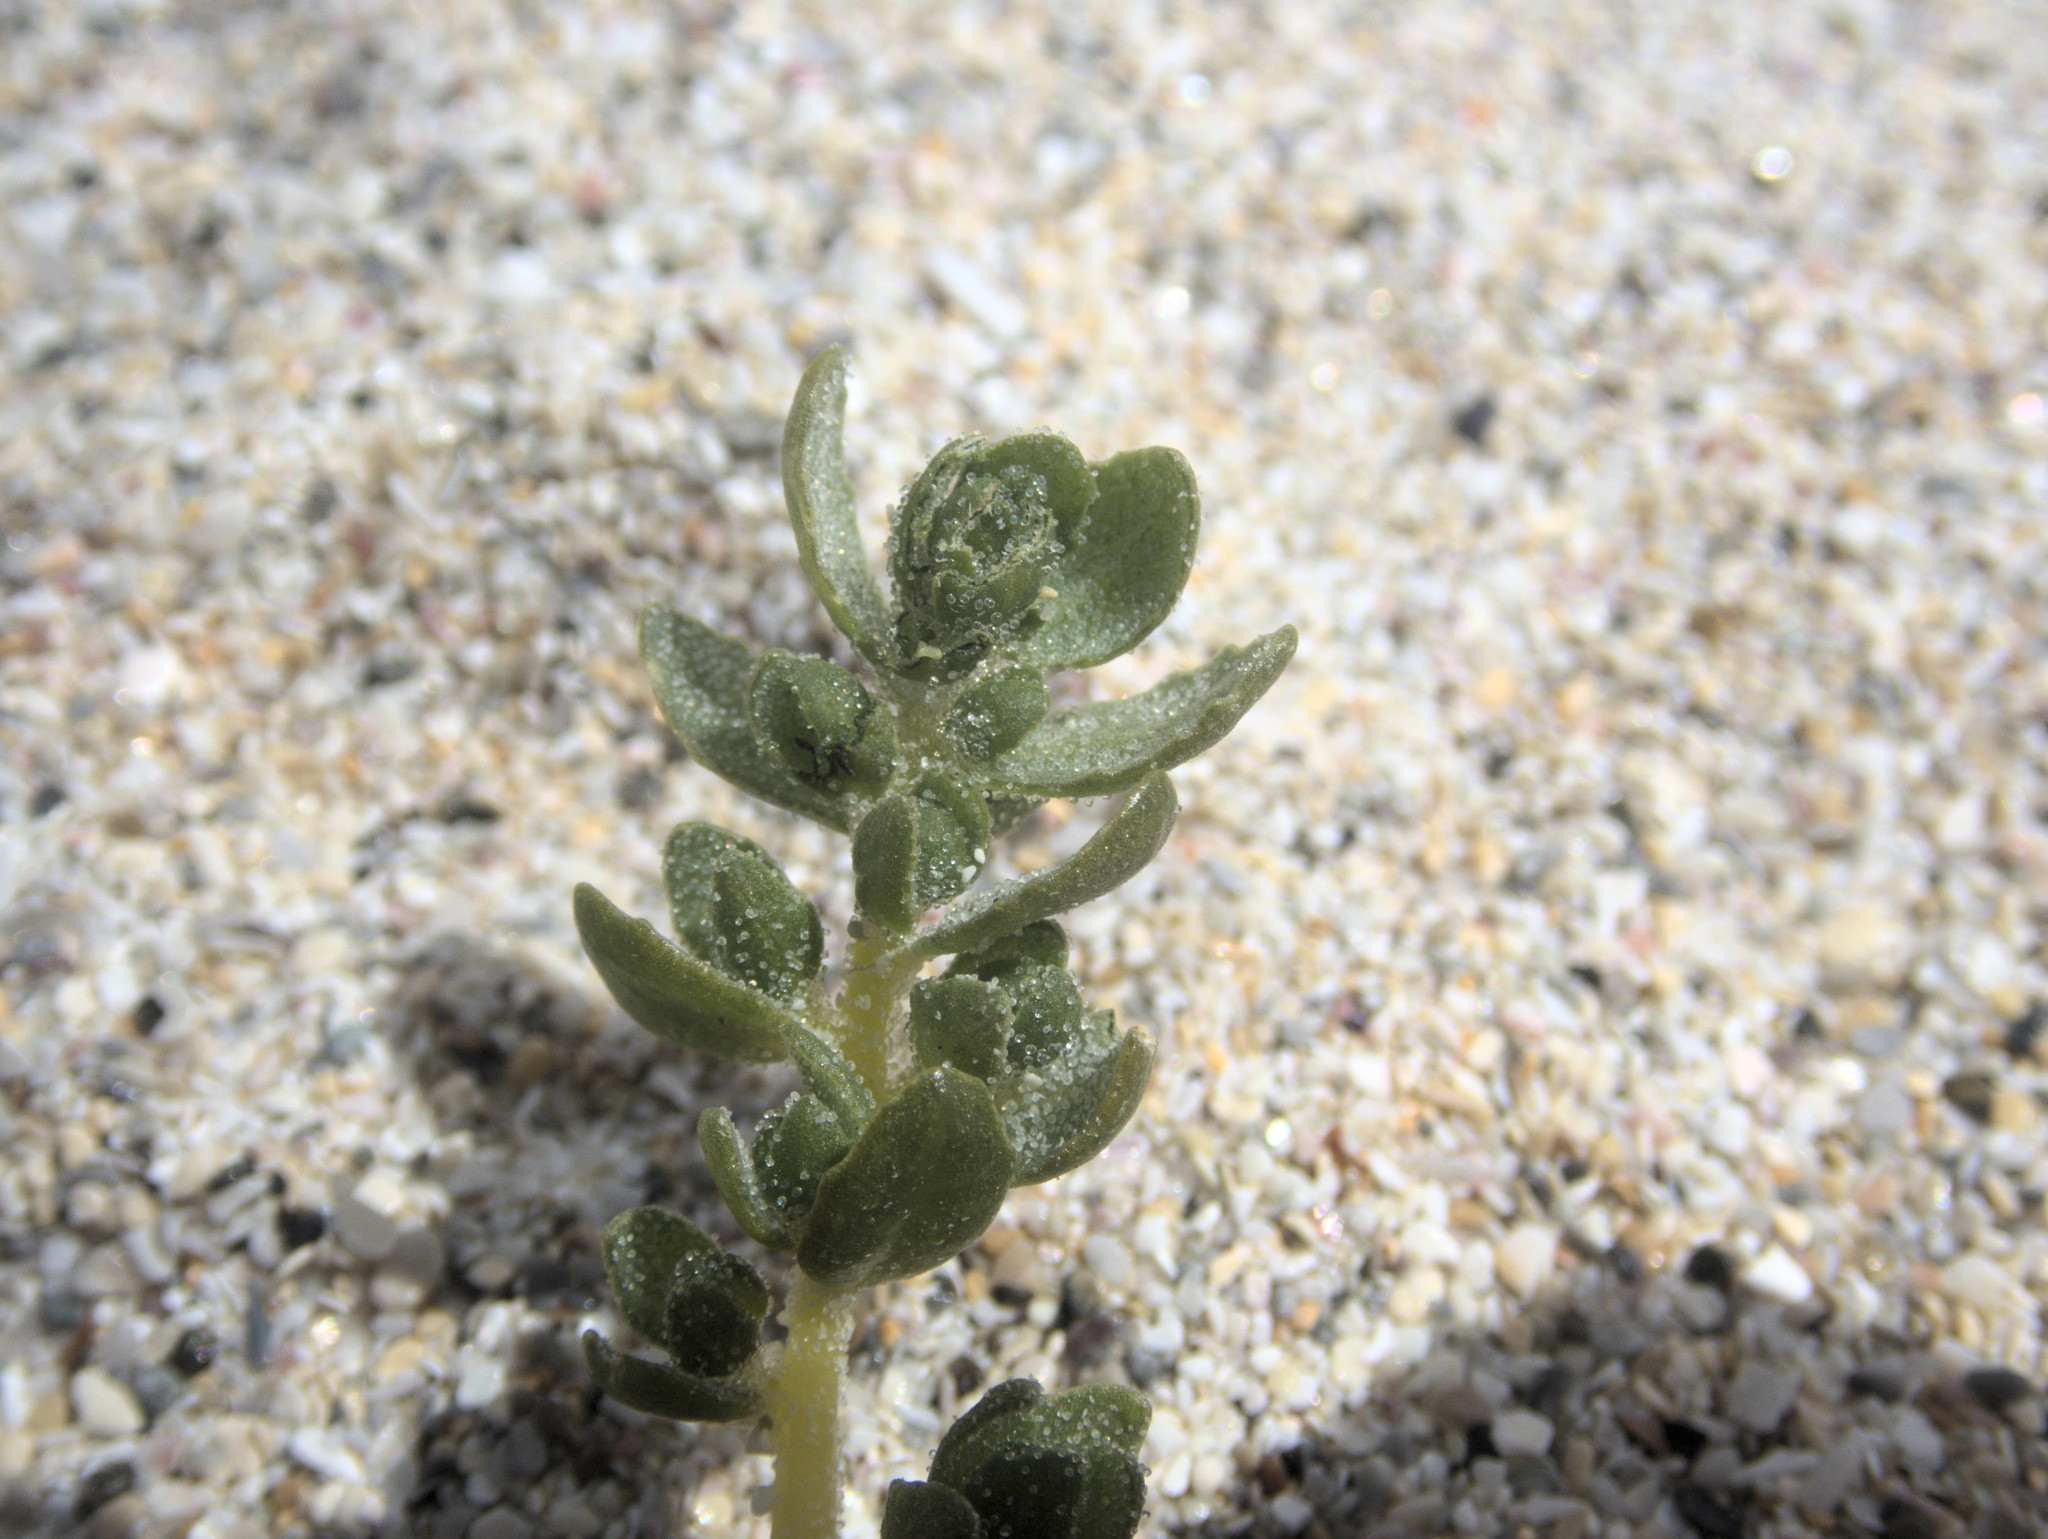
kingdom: Plantae
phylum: Tracheophyta
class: Magnoliopsida
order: Caryophyllales
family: Amaranthaceae
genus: Atriplex
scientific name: Atriplex billardierei
